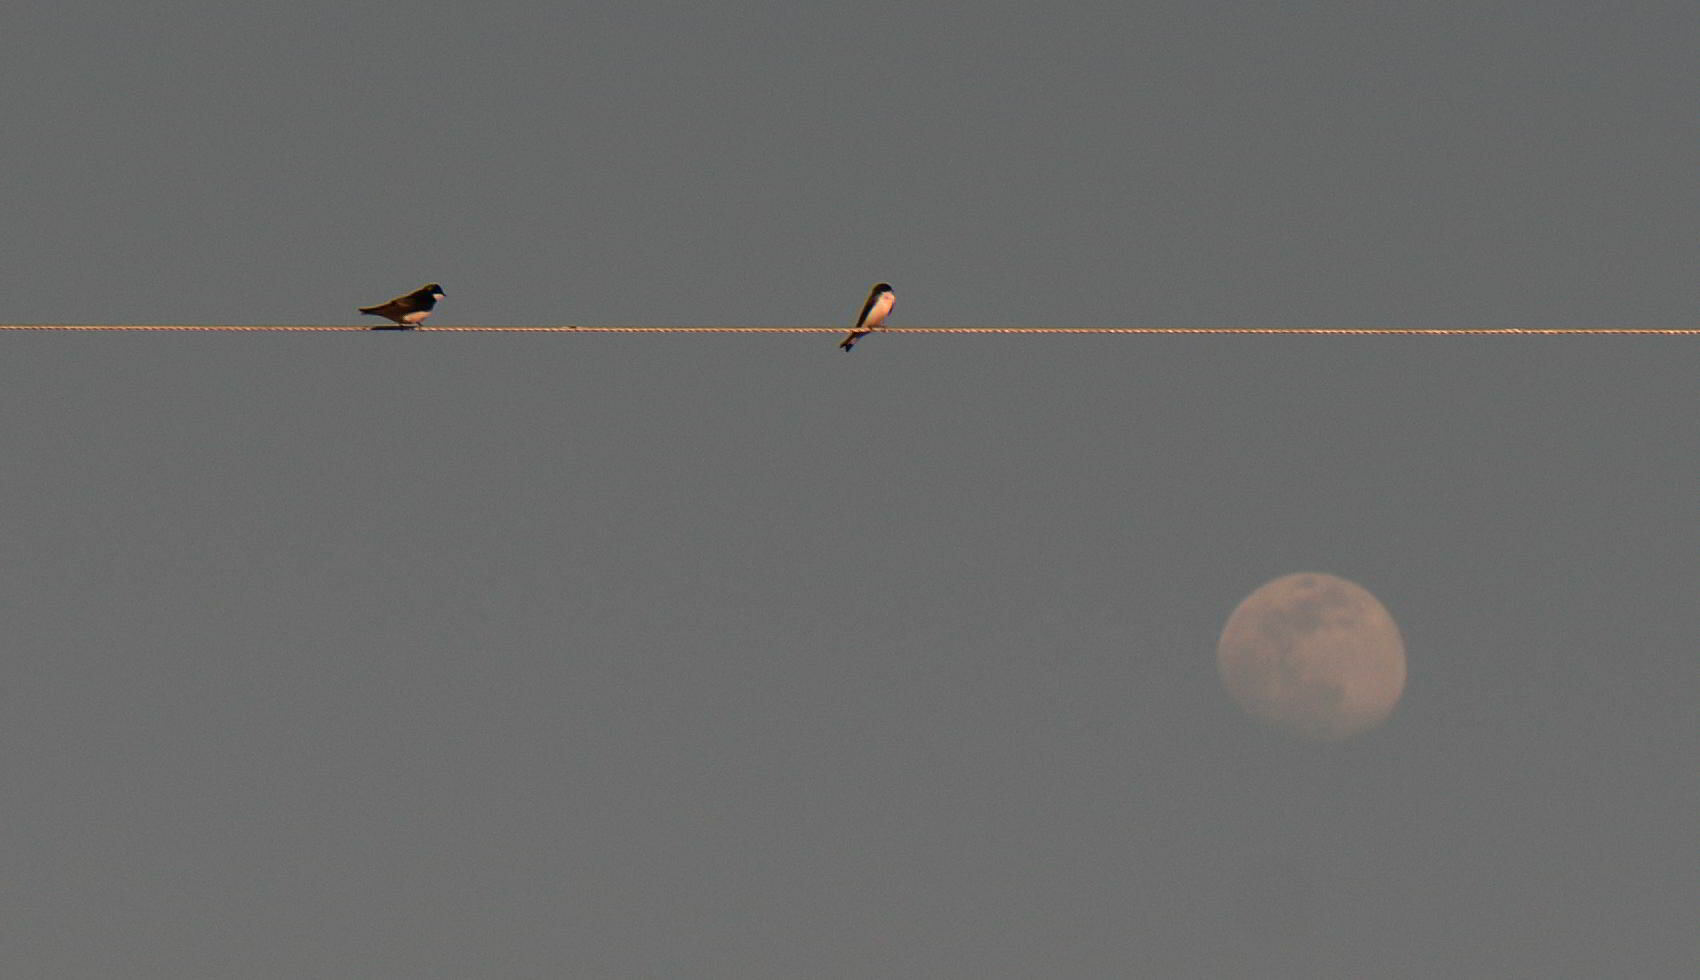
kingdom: Animalia
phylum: Chordata
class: Aves
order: Passeriformes
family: Hirundinidae
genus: Tachycineta
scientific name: Tachycineta bicolor
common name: Tree swallow
